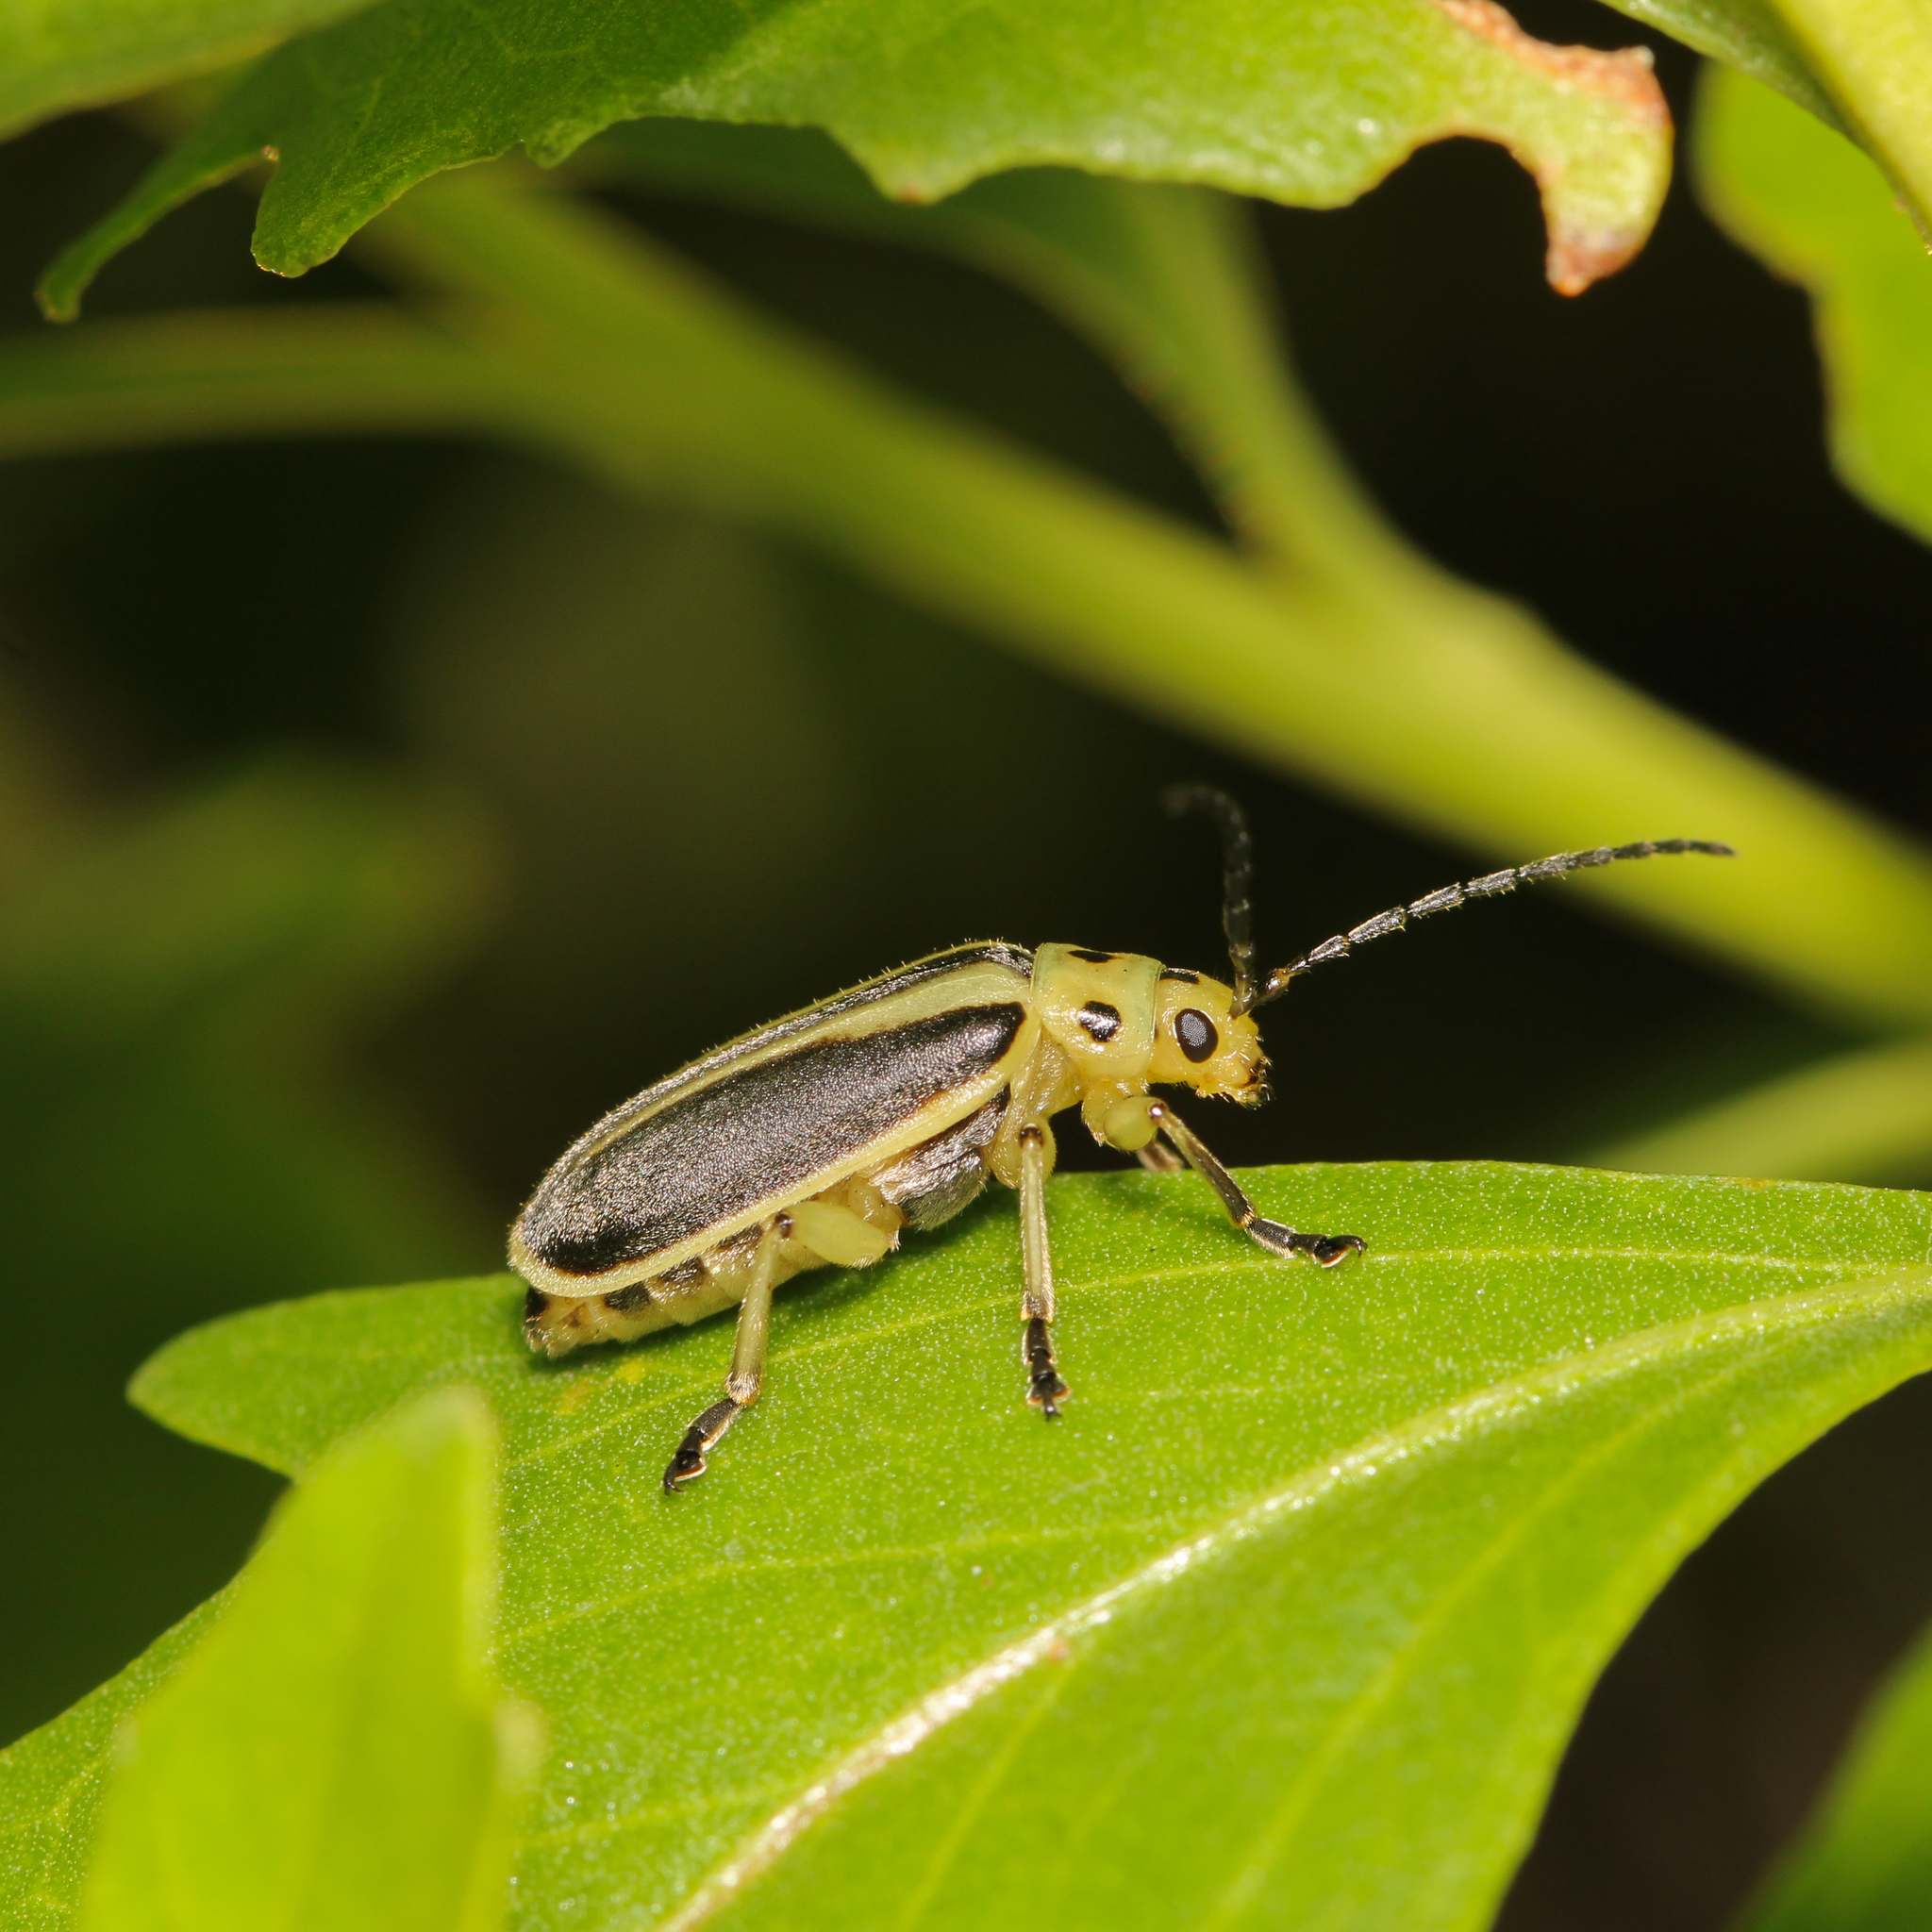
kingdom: Animalia
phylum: Arthropoda
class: Insecta
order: Coleoptera
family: Chrysomelidae
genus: Trirhabda
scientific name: Trirhabda bacharidis
